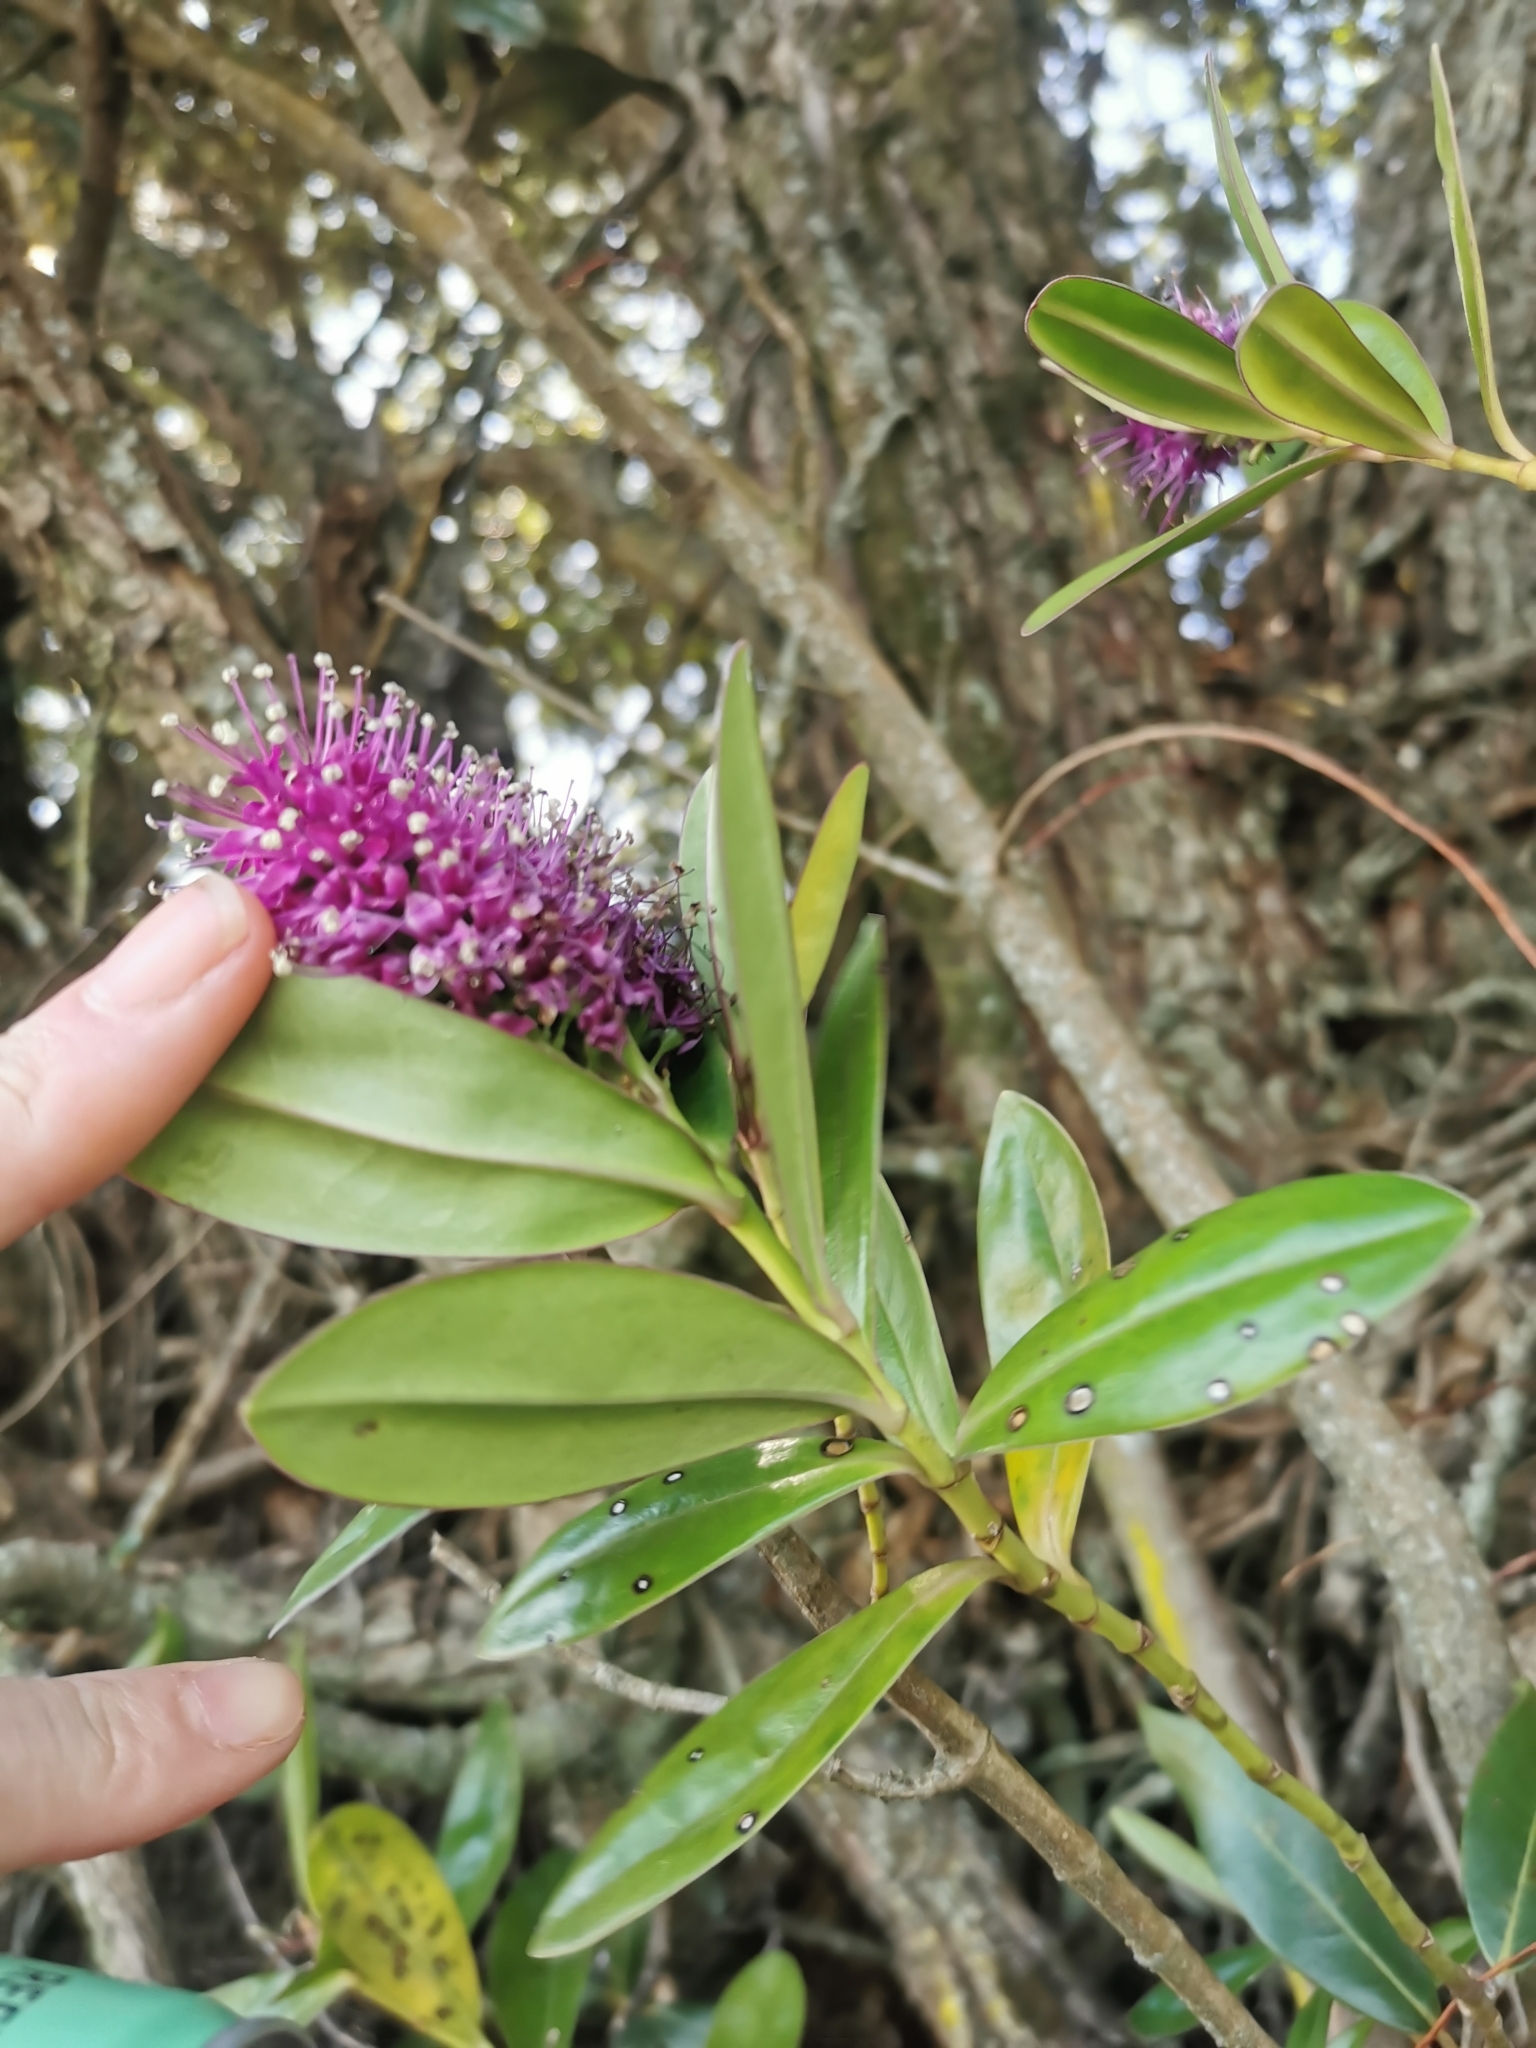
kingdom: Plantae
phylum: Tracheophyta
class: Magnoliopsida
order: Lamiales
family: Plantaginaceae
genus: Veronica
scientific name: Veronica speciosa
